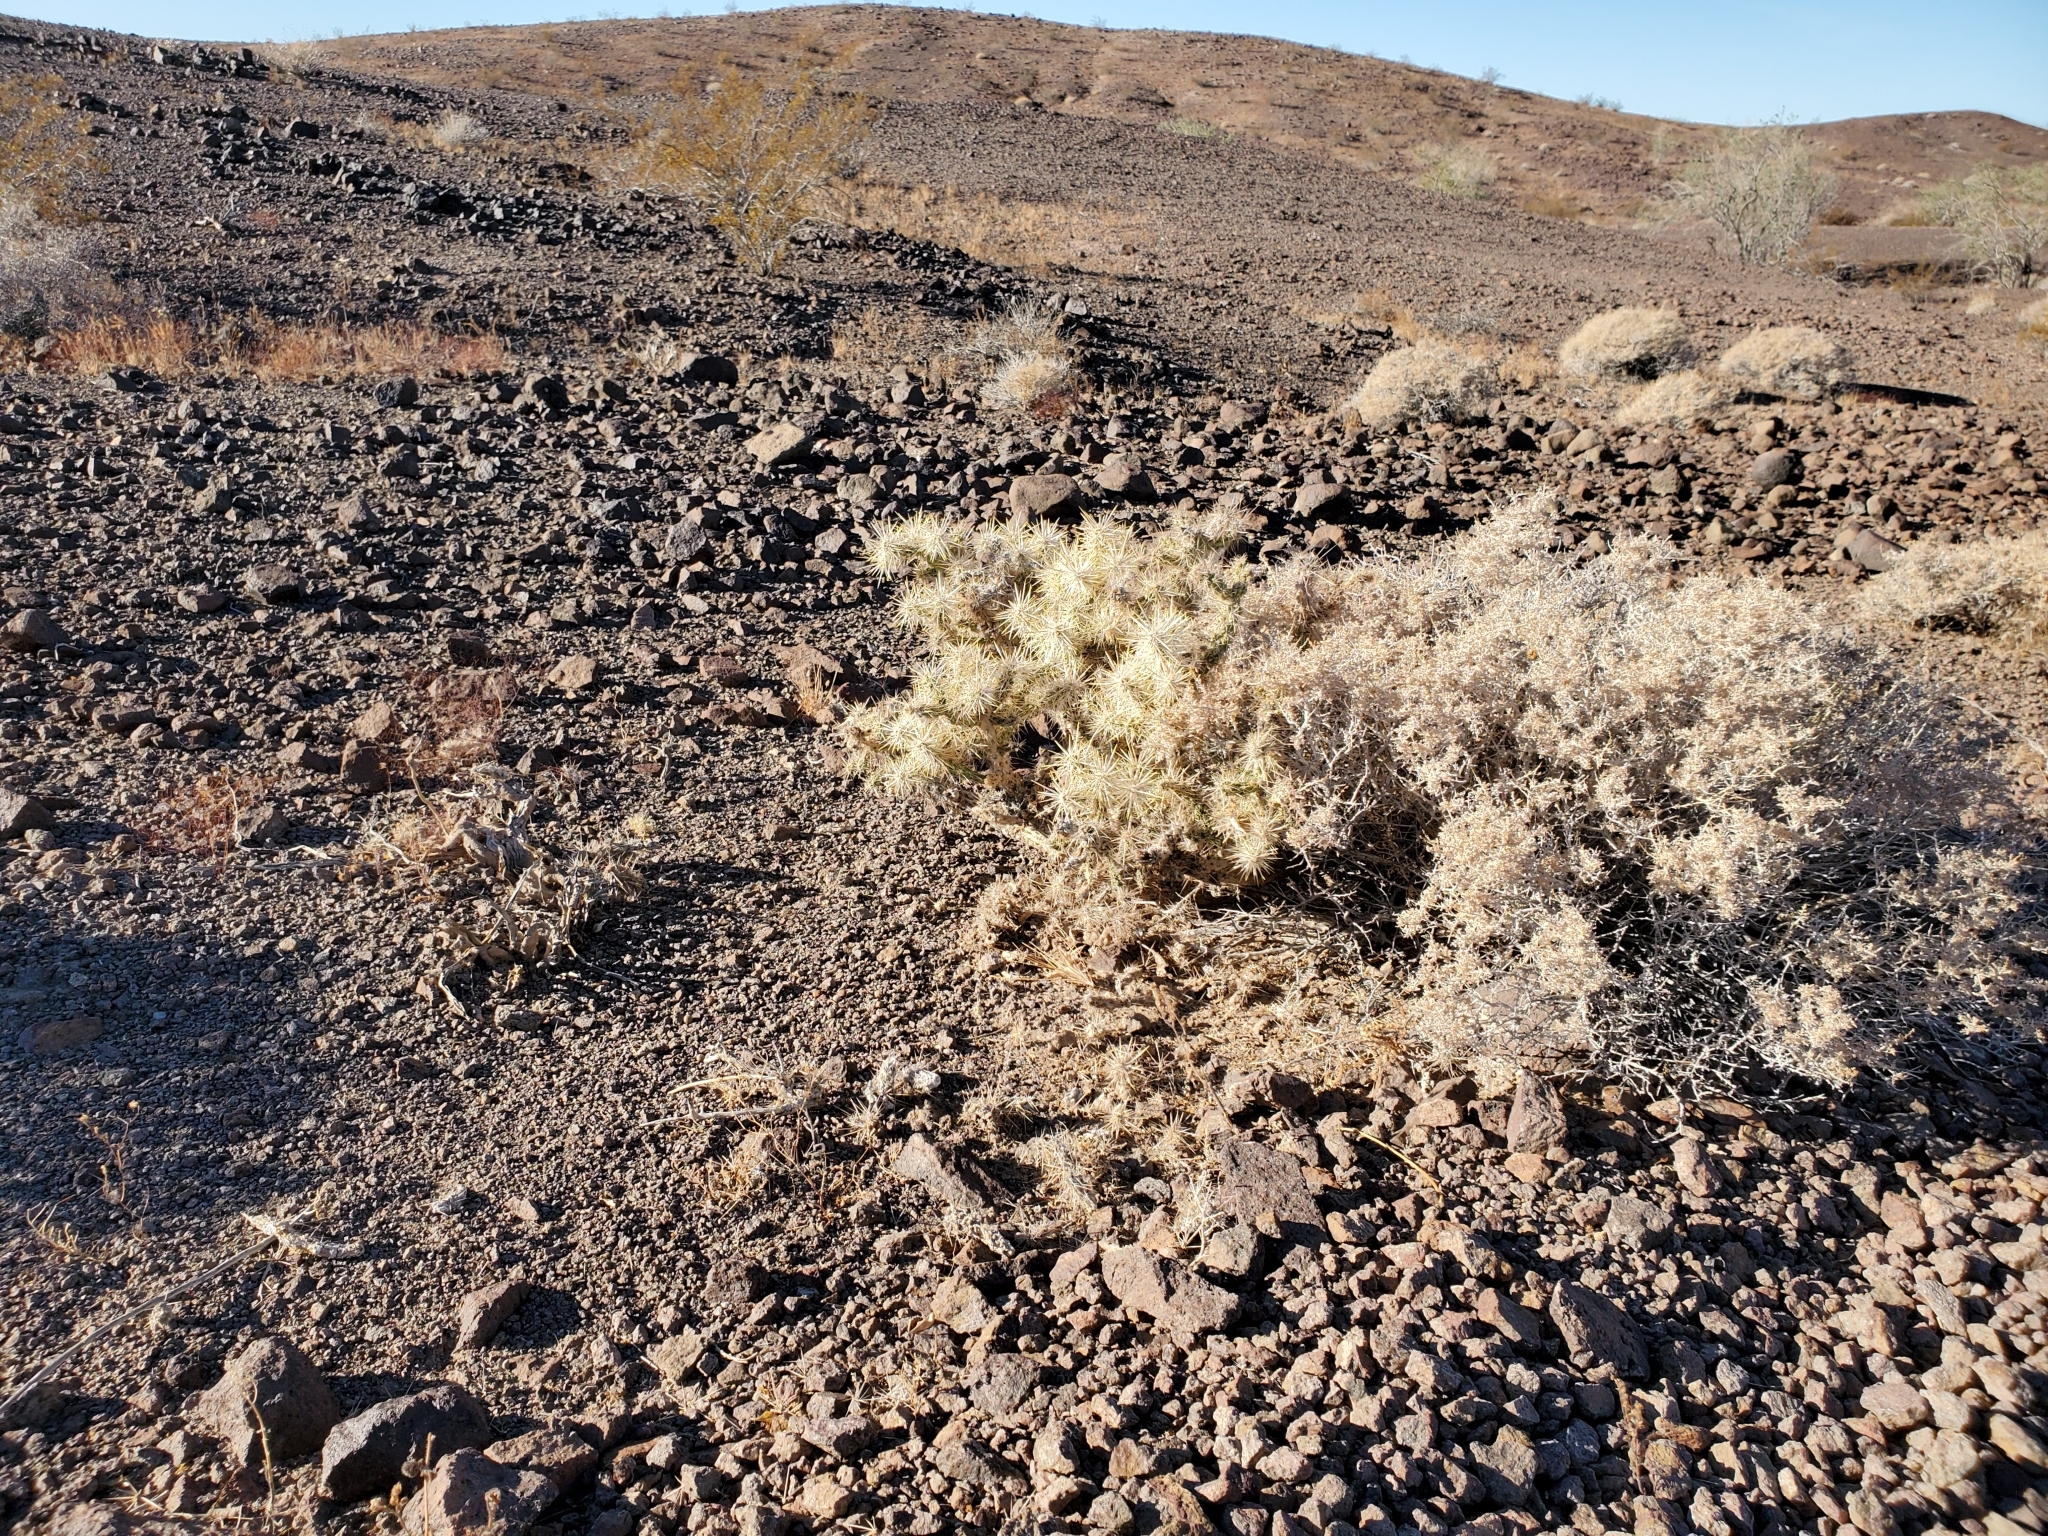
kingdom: Plantae
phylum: Tracheophyta
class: Magnoliopsida
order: Caryophyllales
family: Cactaceae
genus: Cylindropuntia
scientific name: Cylindropuntia echinocarpa
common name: Ground cholla
